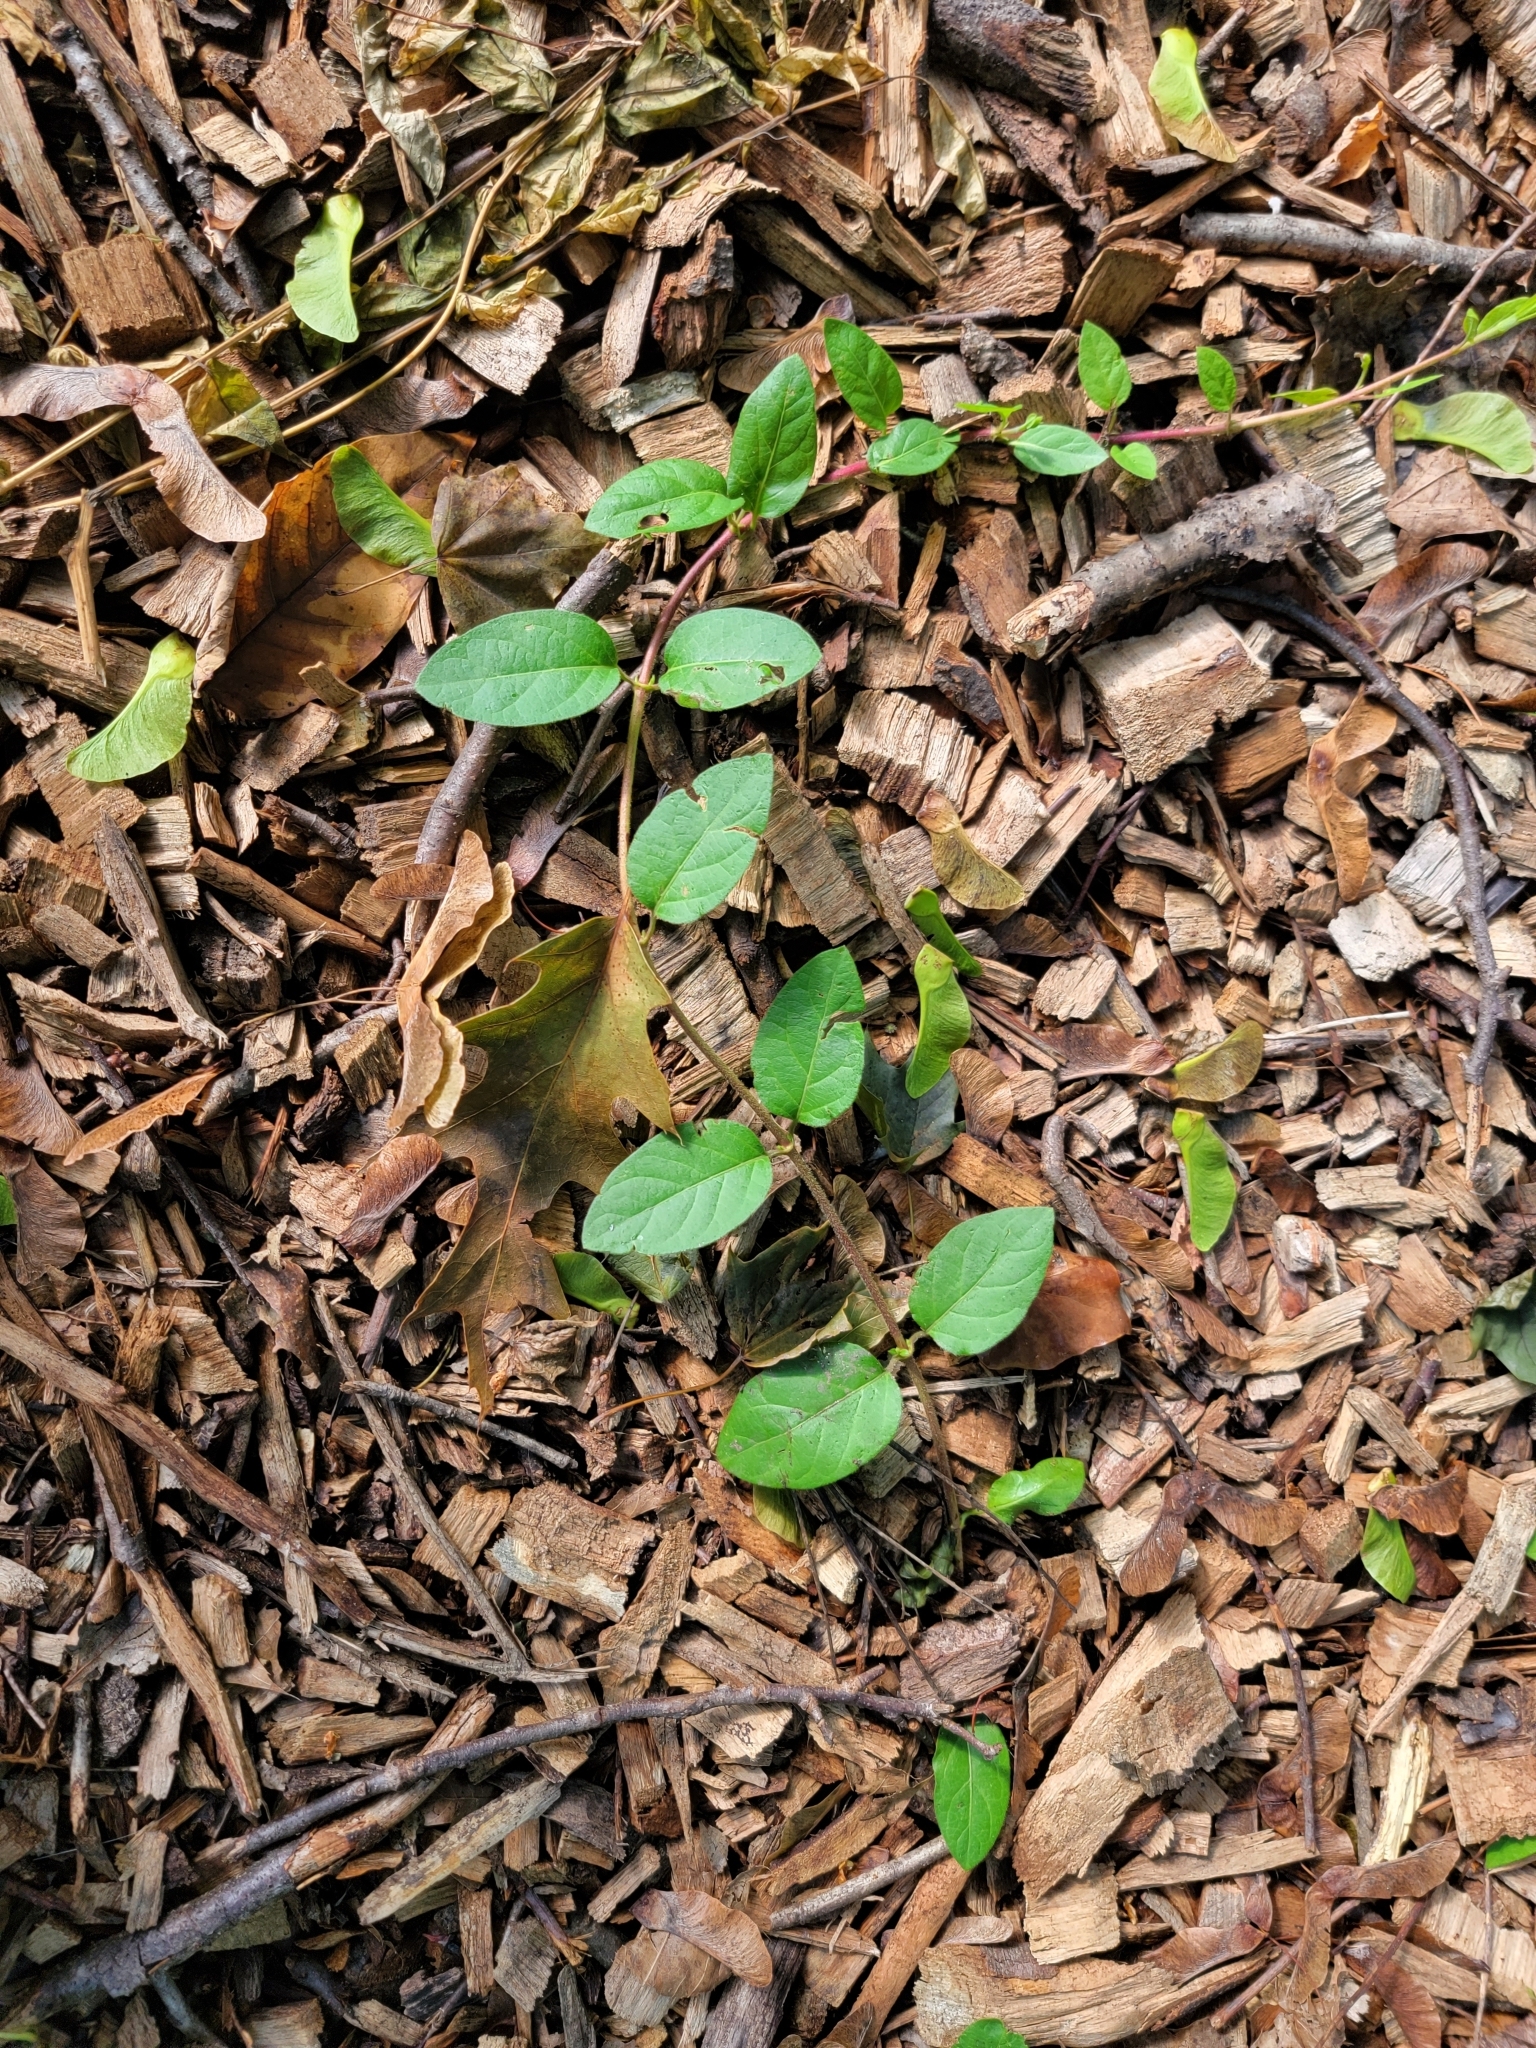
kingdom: Plantae
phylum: Tracheophyta
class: Magnoliopsida
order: Dipsacales
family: Caprifoliaceae
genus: Lonicera
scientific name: Lonicera japonica
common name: Japanese honeysuckle
